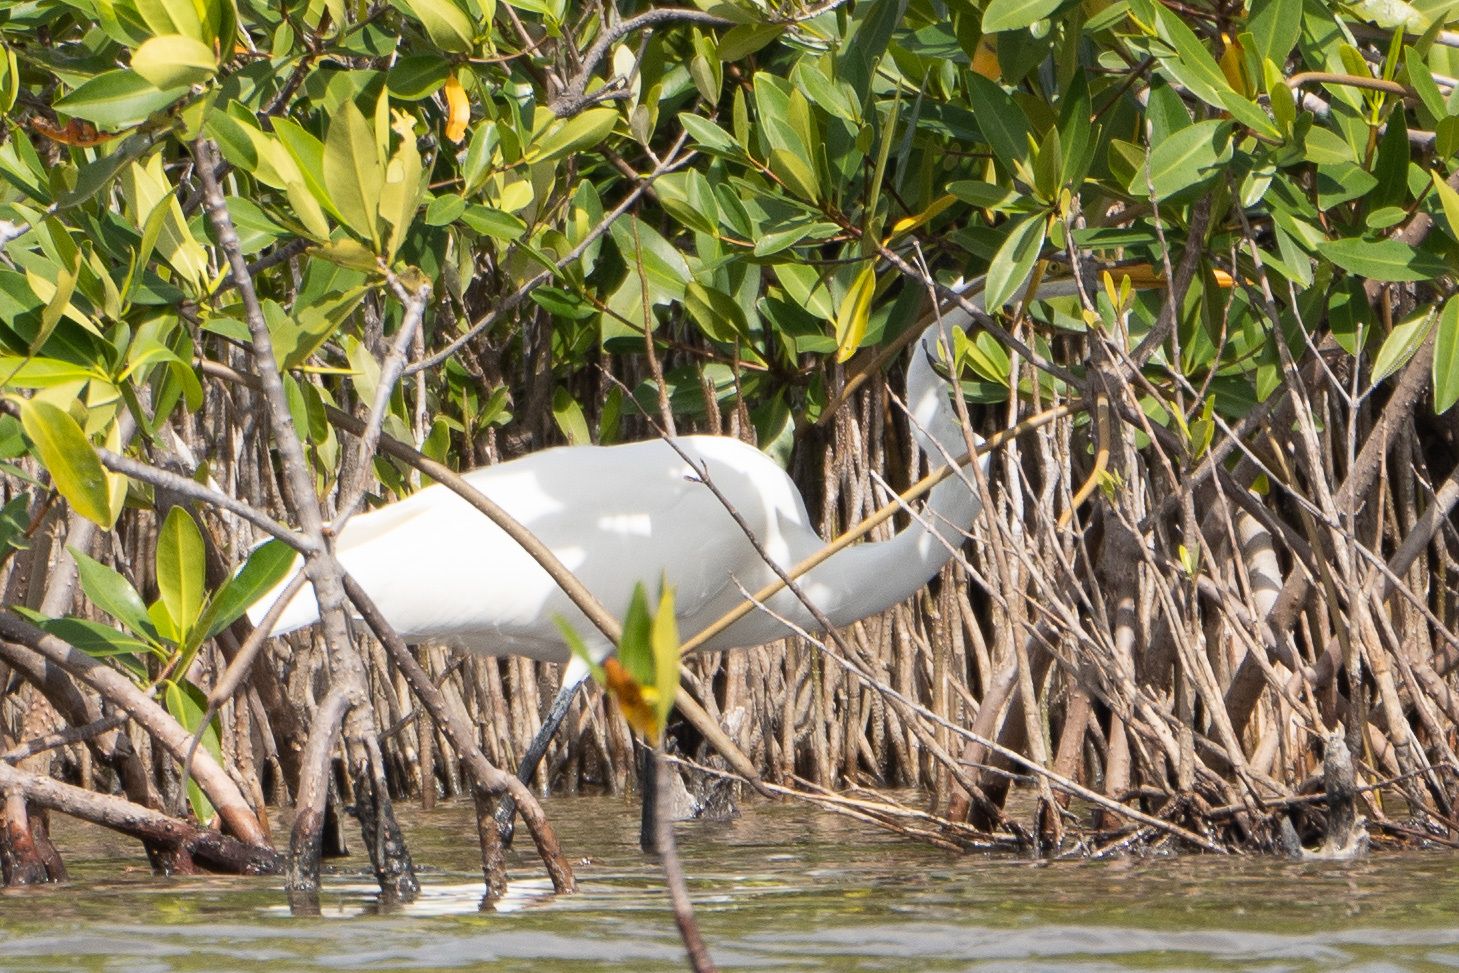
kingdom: Animalia
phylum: Chordata
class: Aves
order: Pelecaniformes
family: Ardeidae
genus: Ardea
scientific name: Ardea alba
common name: Great egret
